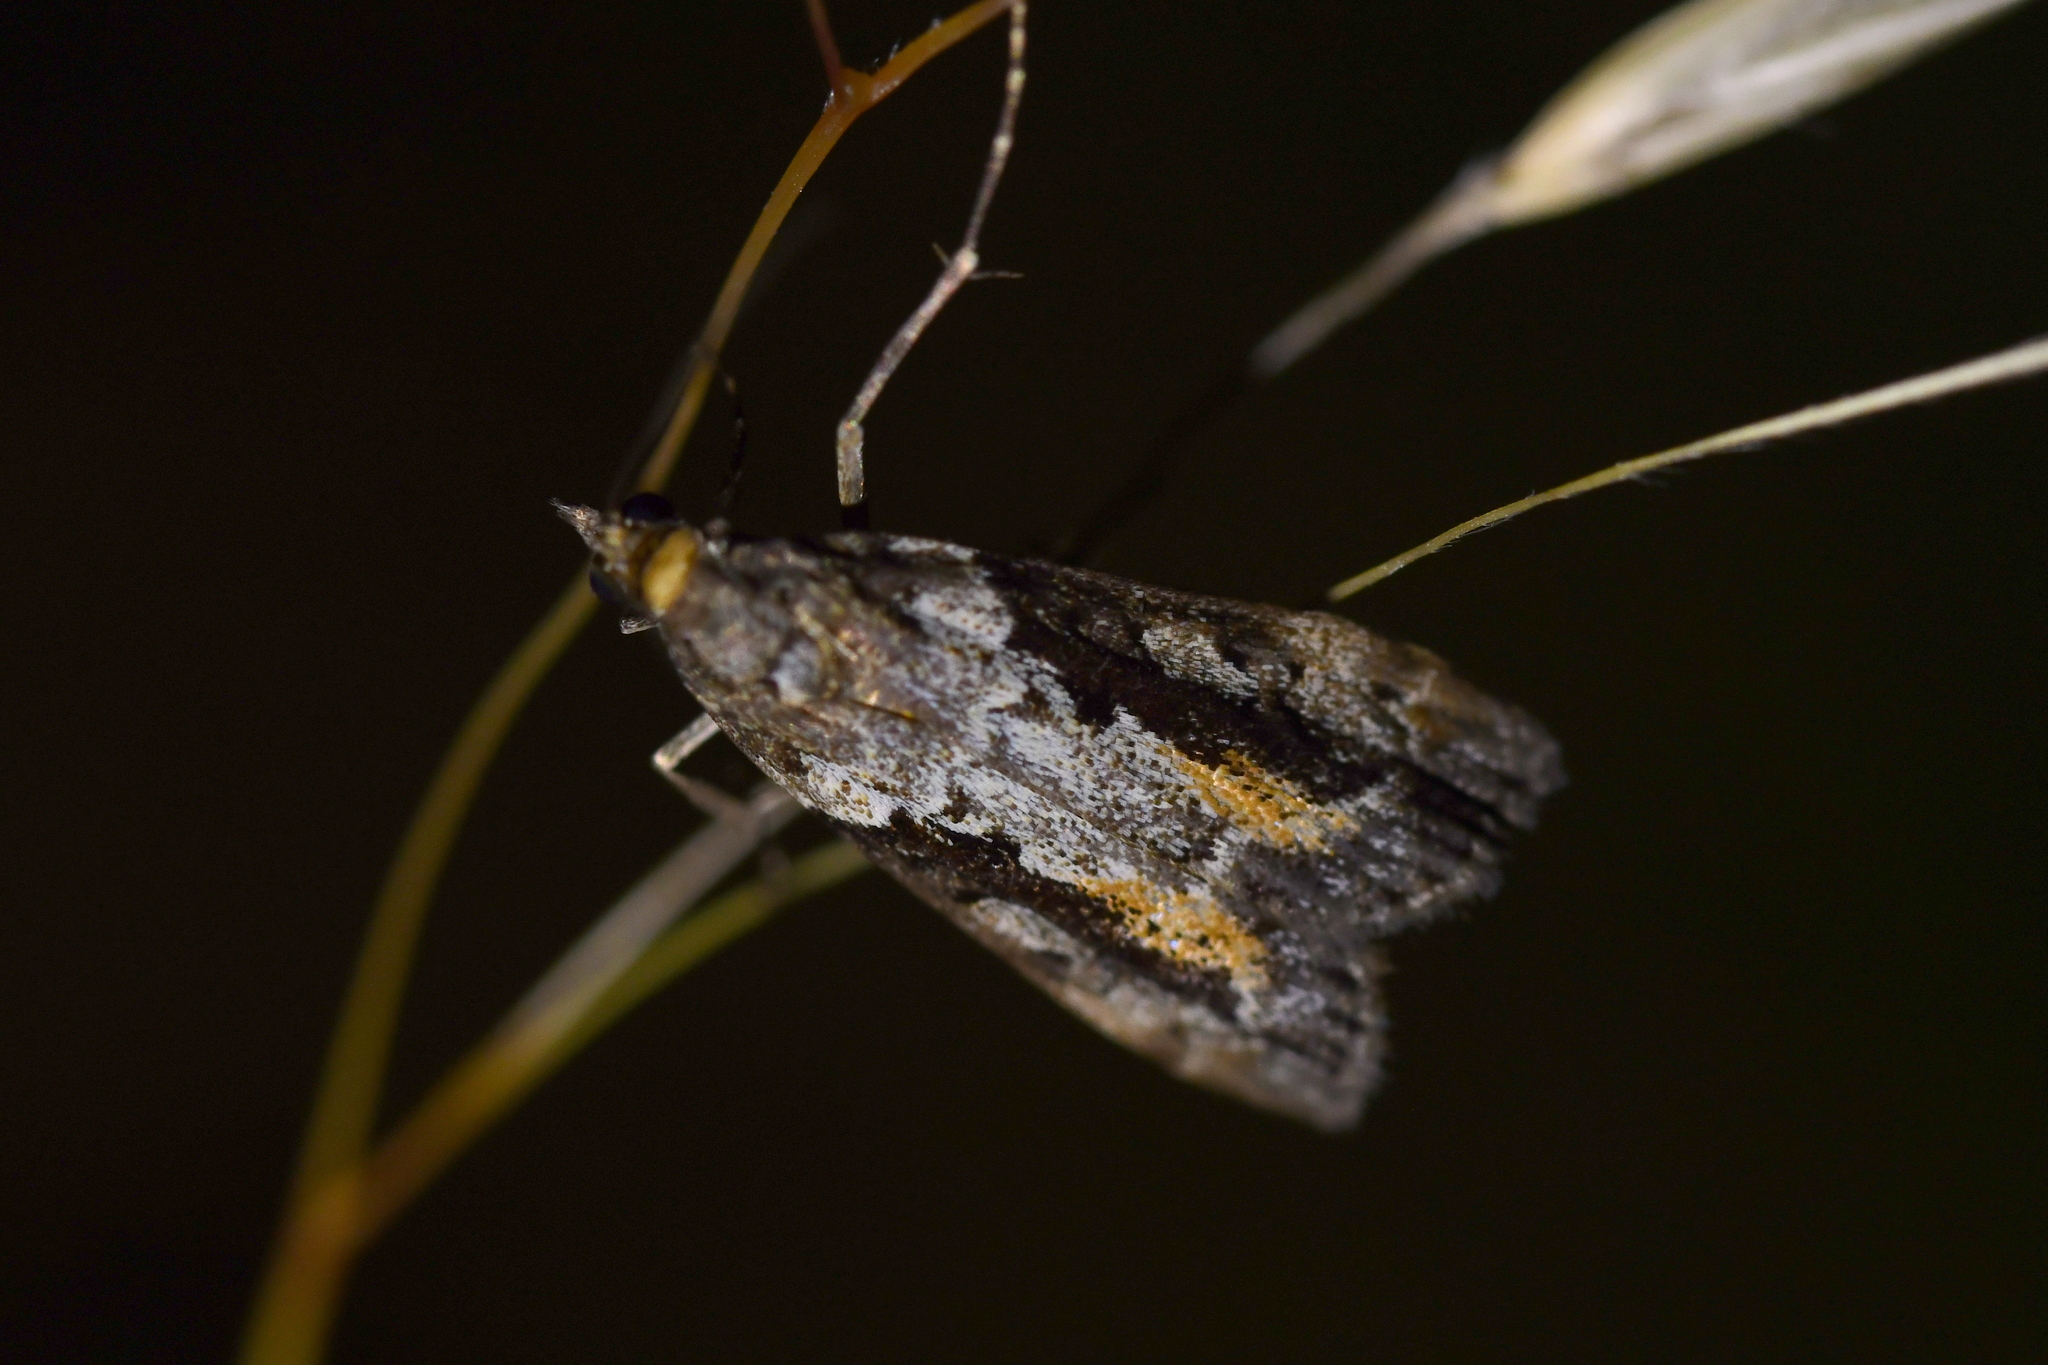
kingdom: Animalia
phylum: Arthropoda
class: Insecta
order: Lepidoptera
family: Crambidae
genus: Eudonia
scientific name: Eudonia submarginalis
